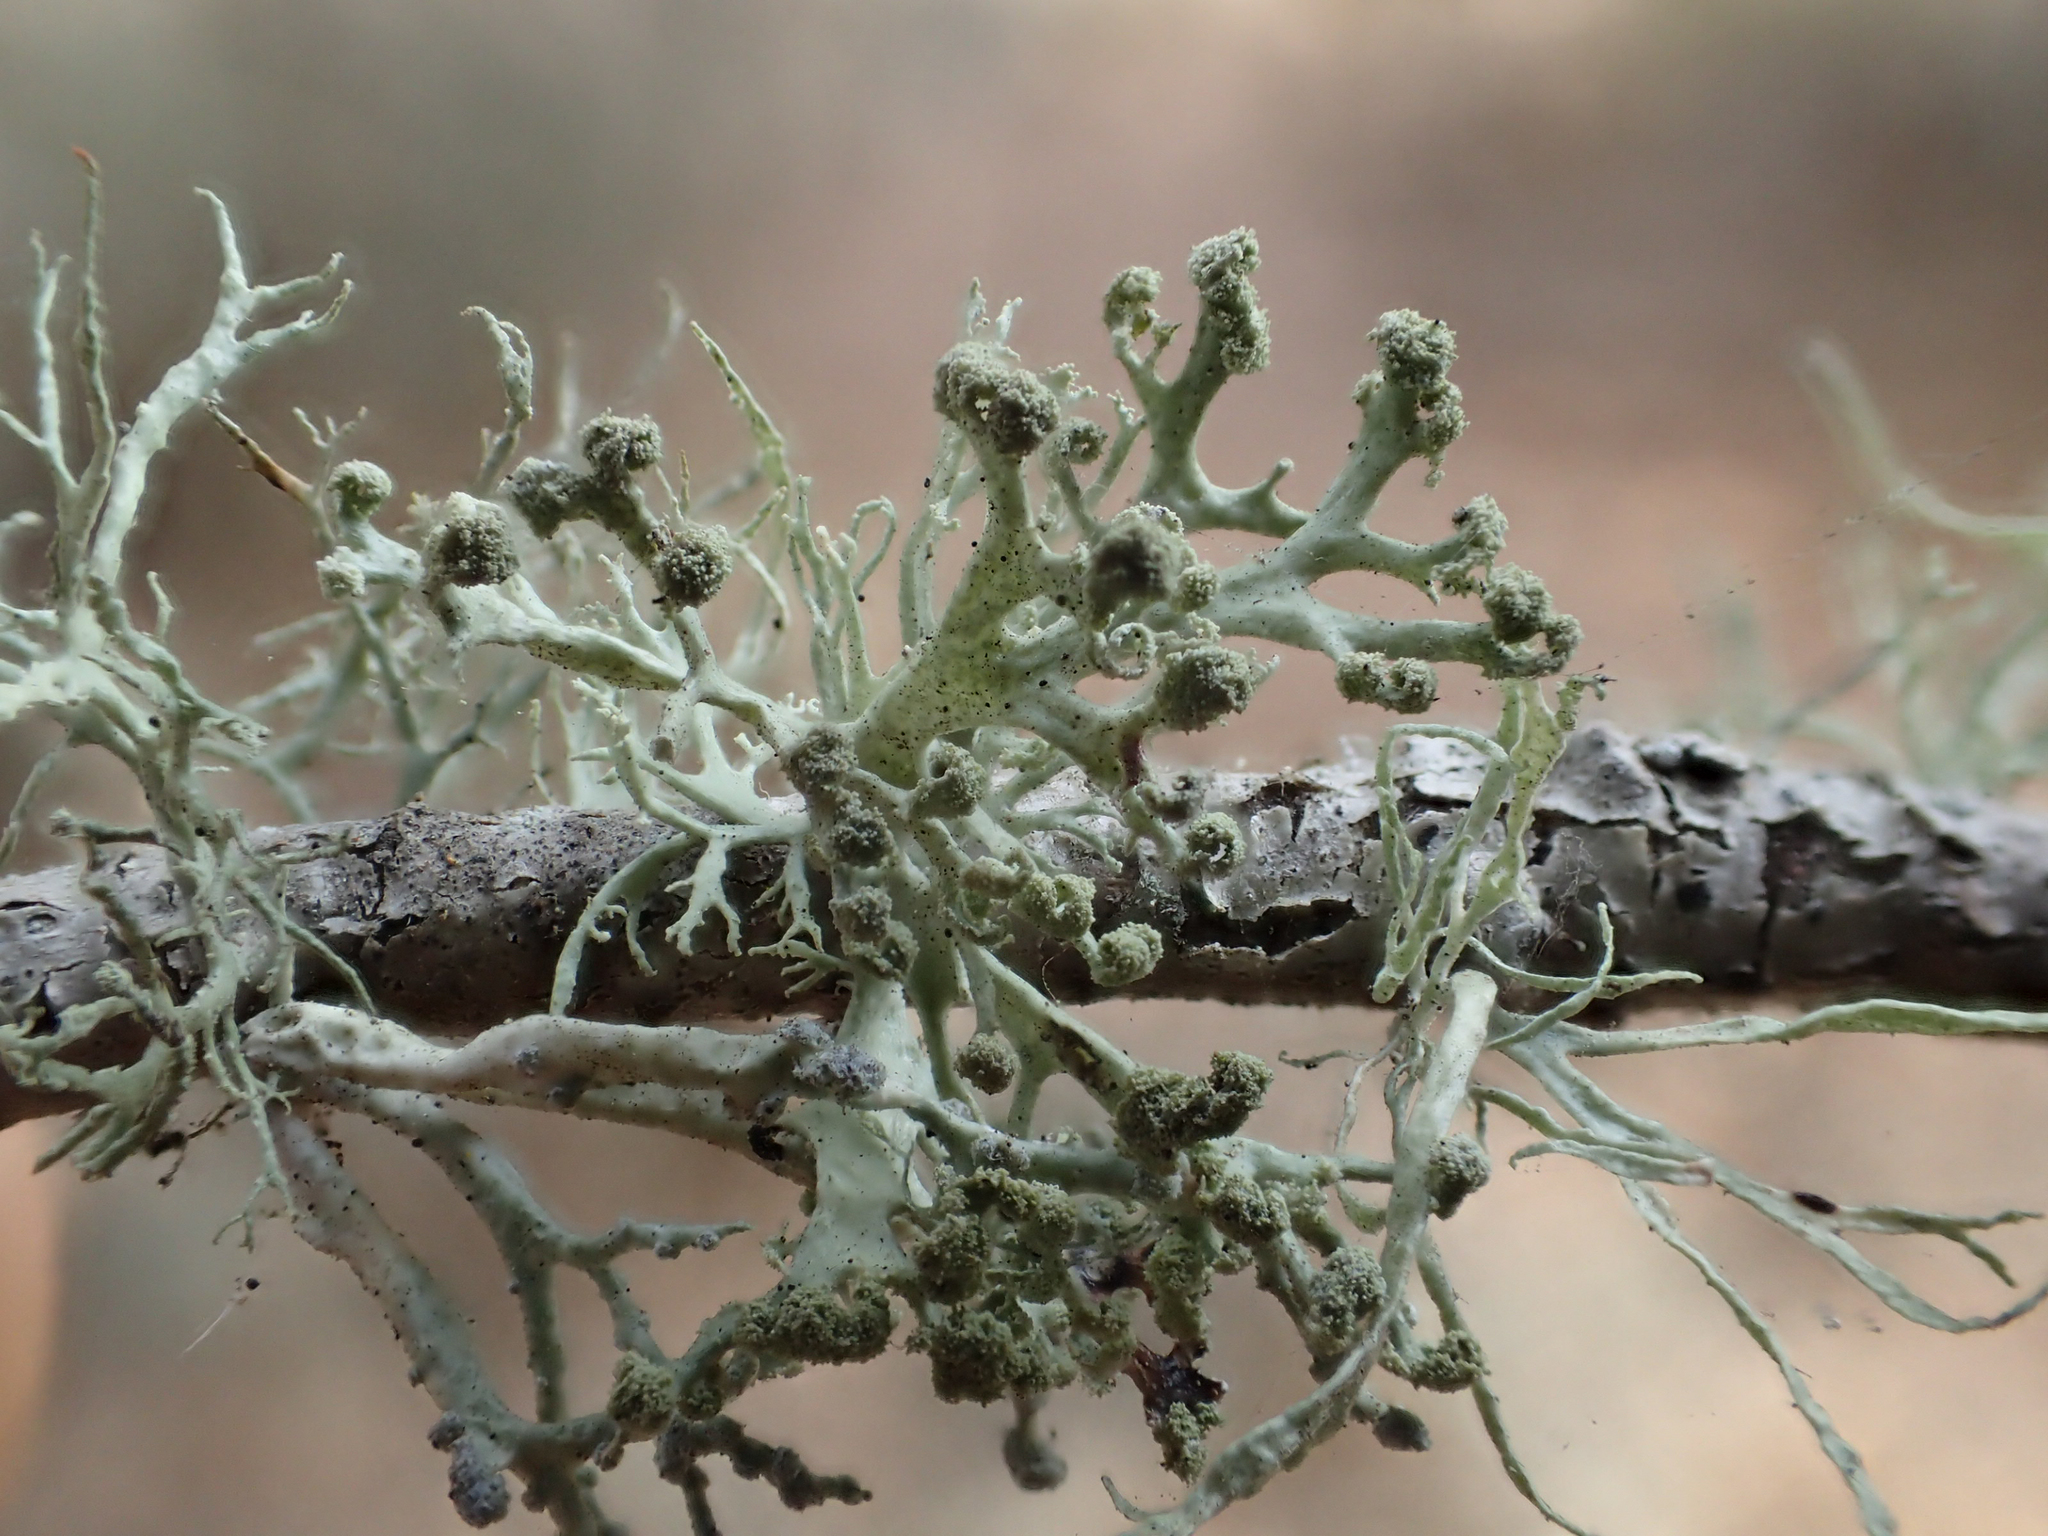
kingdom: Fungi
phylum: Ascomycota
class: Lecanoromycetes
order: Lecanorales
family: Ramalinaceae
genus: Ramalina
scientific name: Ramalina pollinaria
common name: Powdery twig lichen
